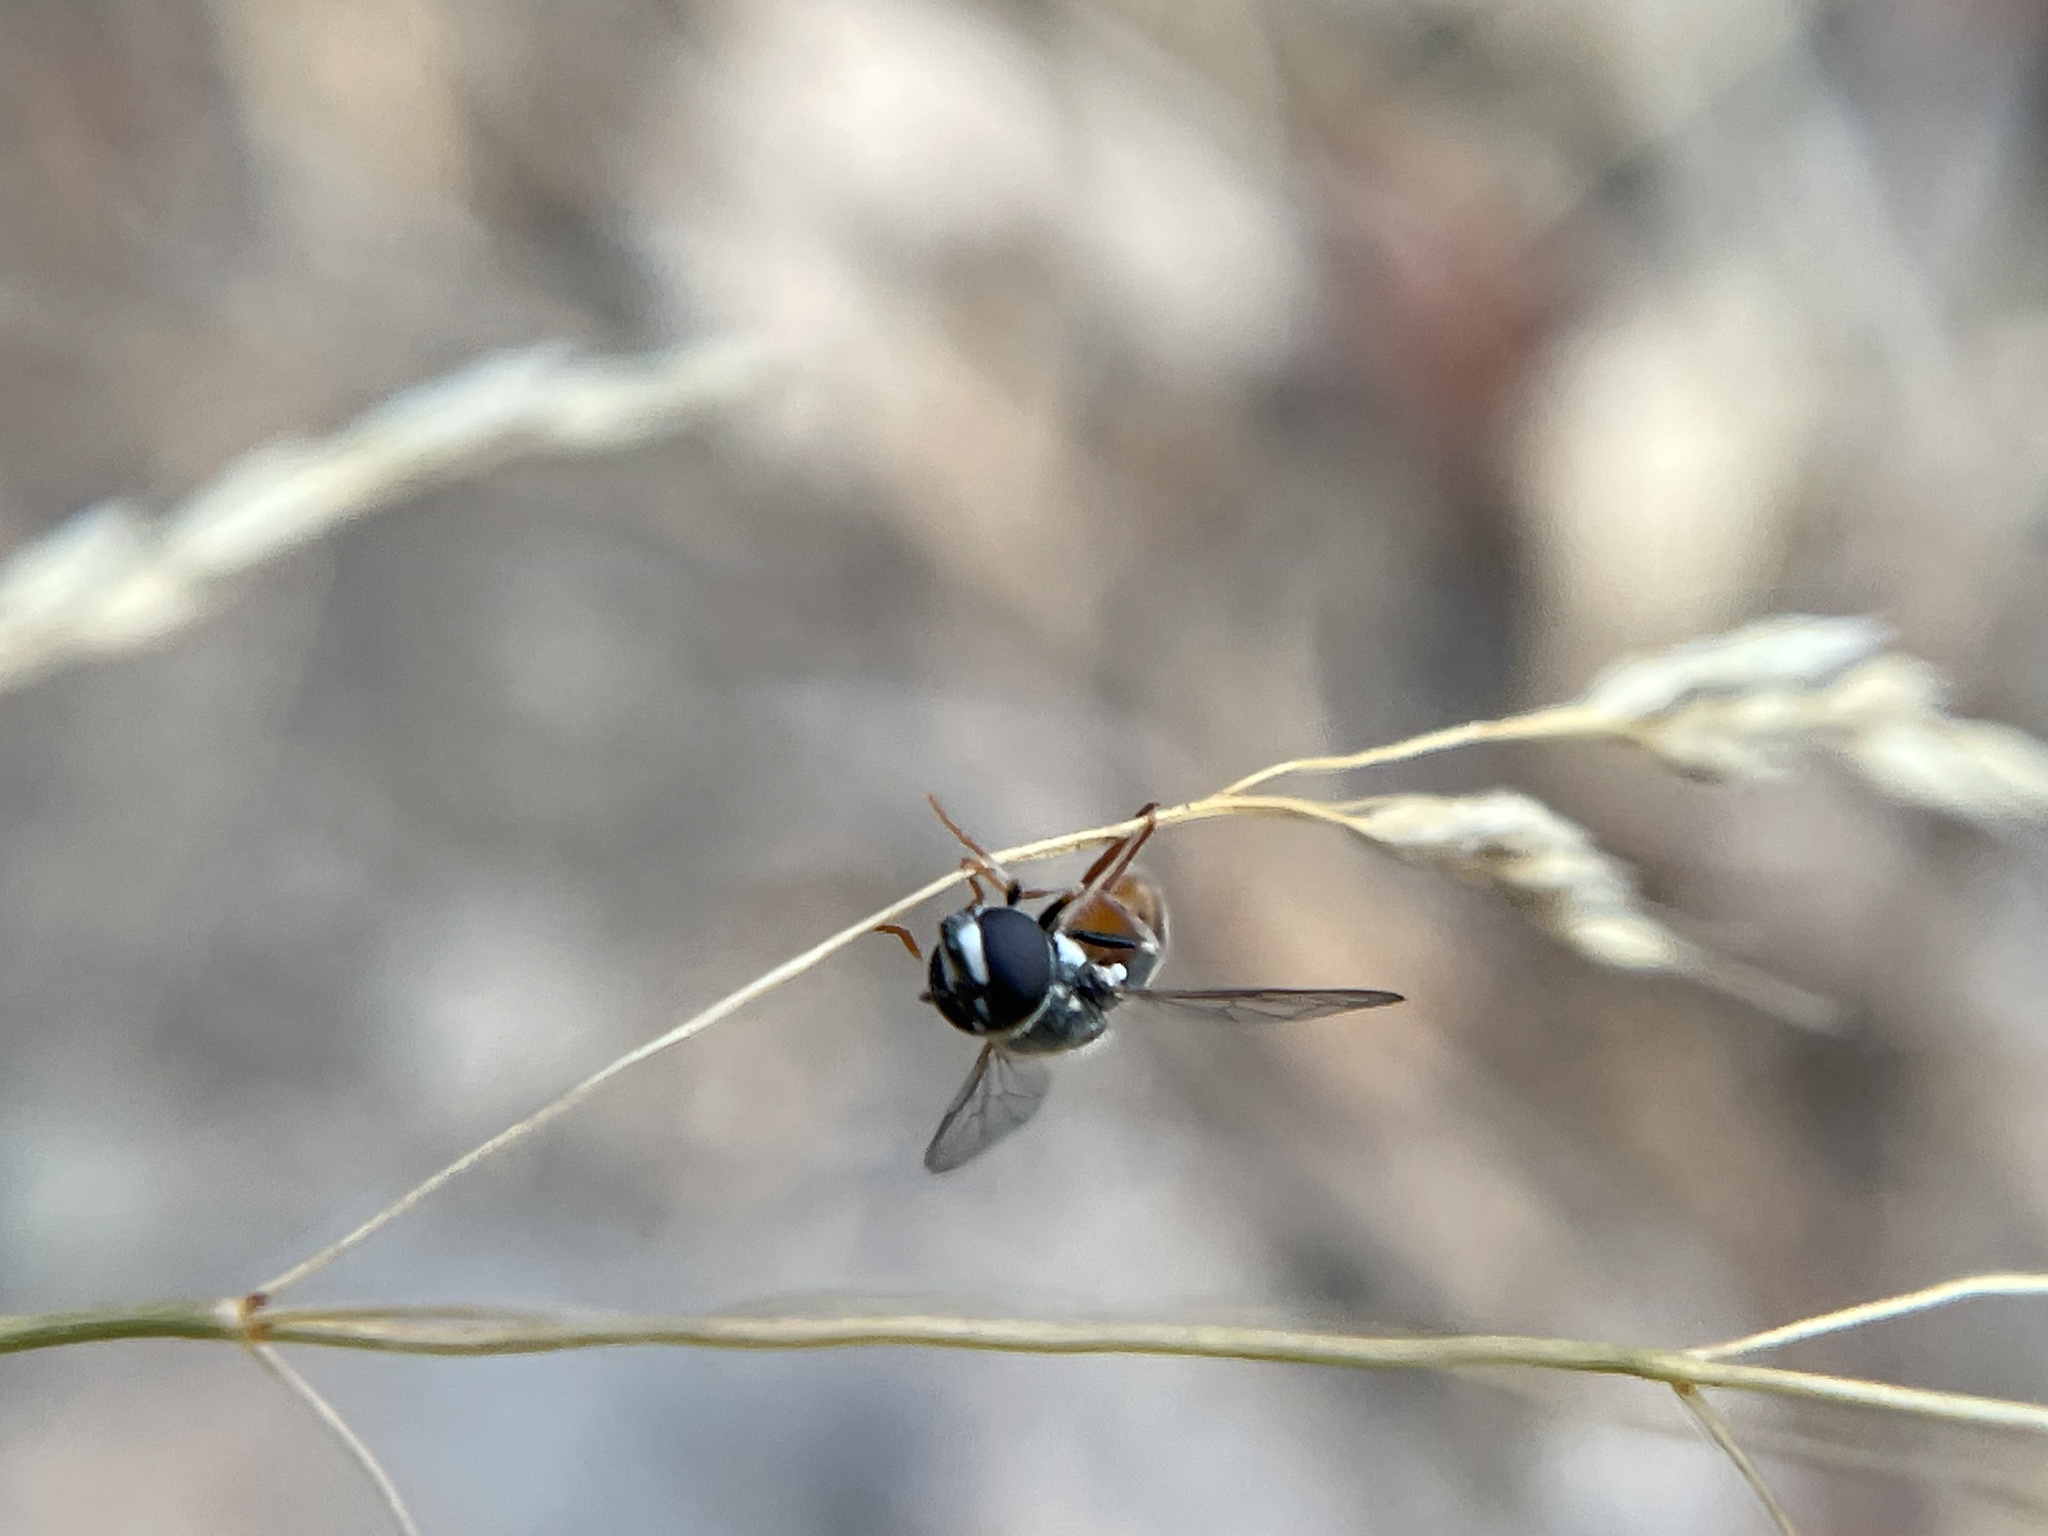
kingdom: Animalia
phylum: Arthropoda
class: Insecta
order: Diptera
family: Syrphidae
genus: Paragus
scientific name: Paragus haemorrhous
